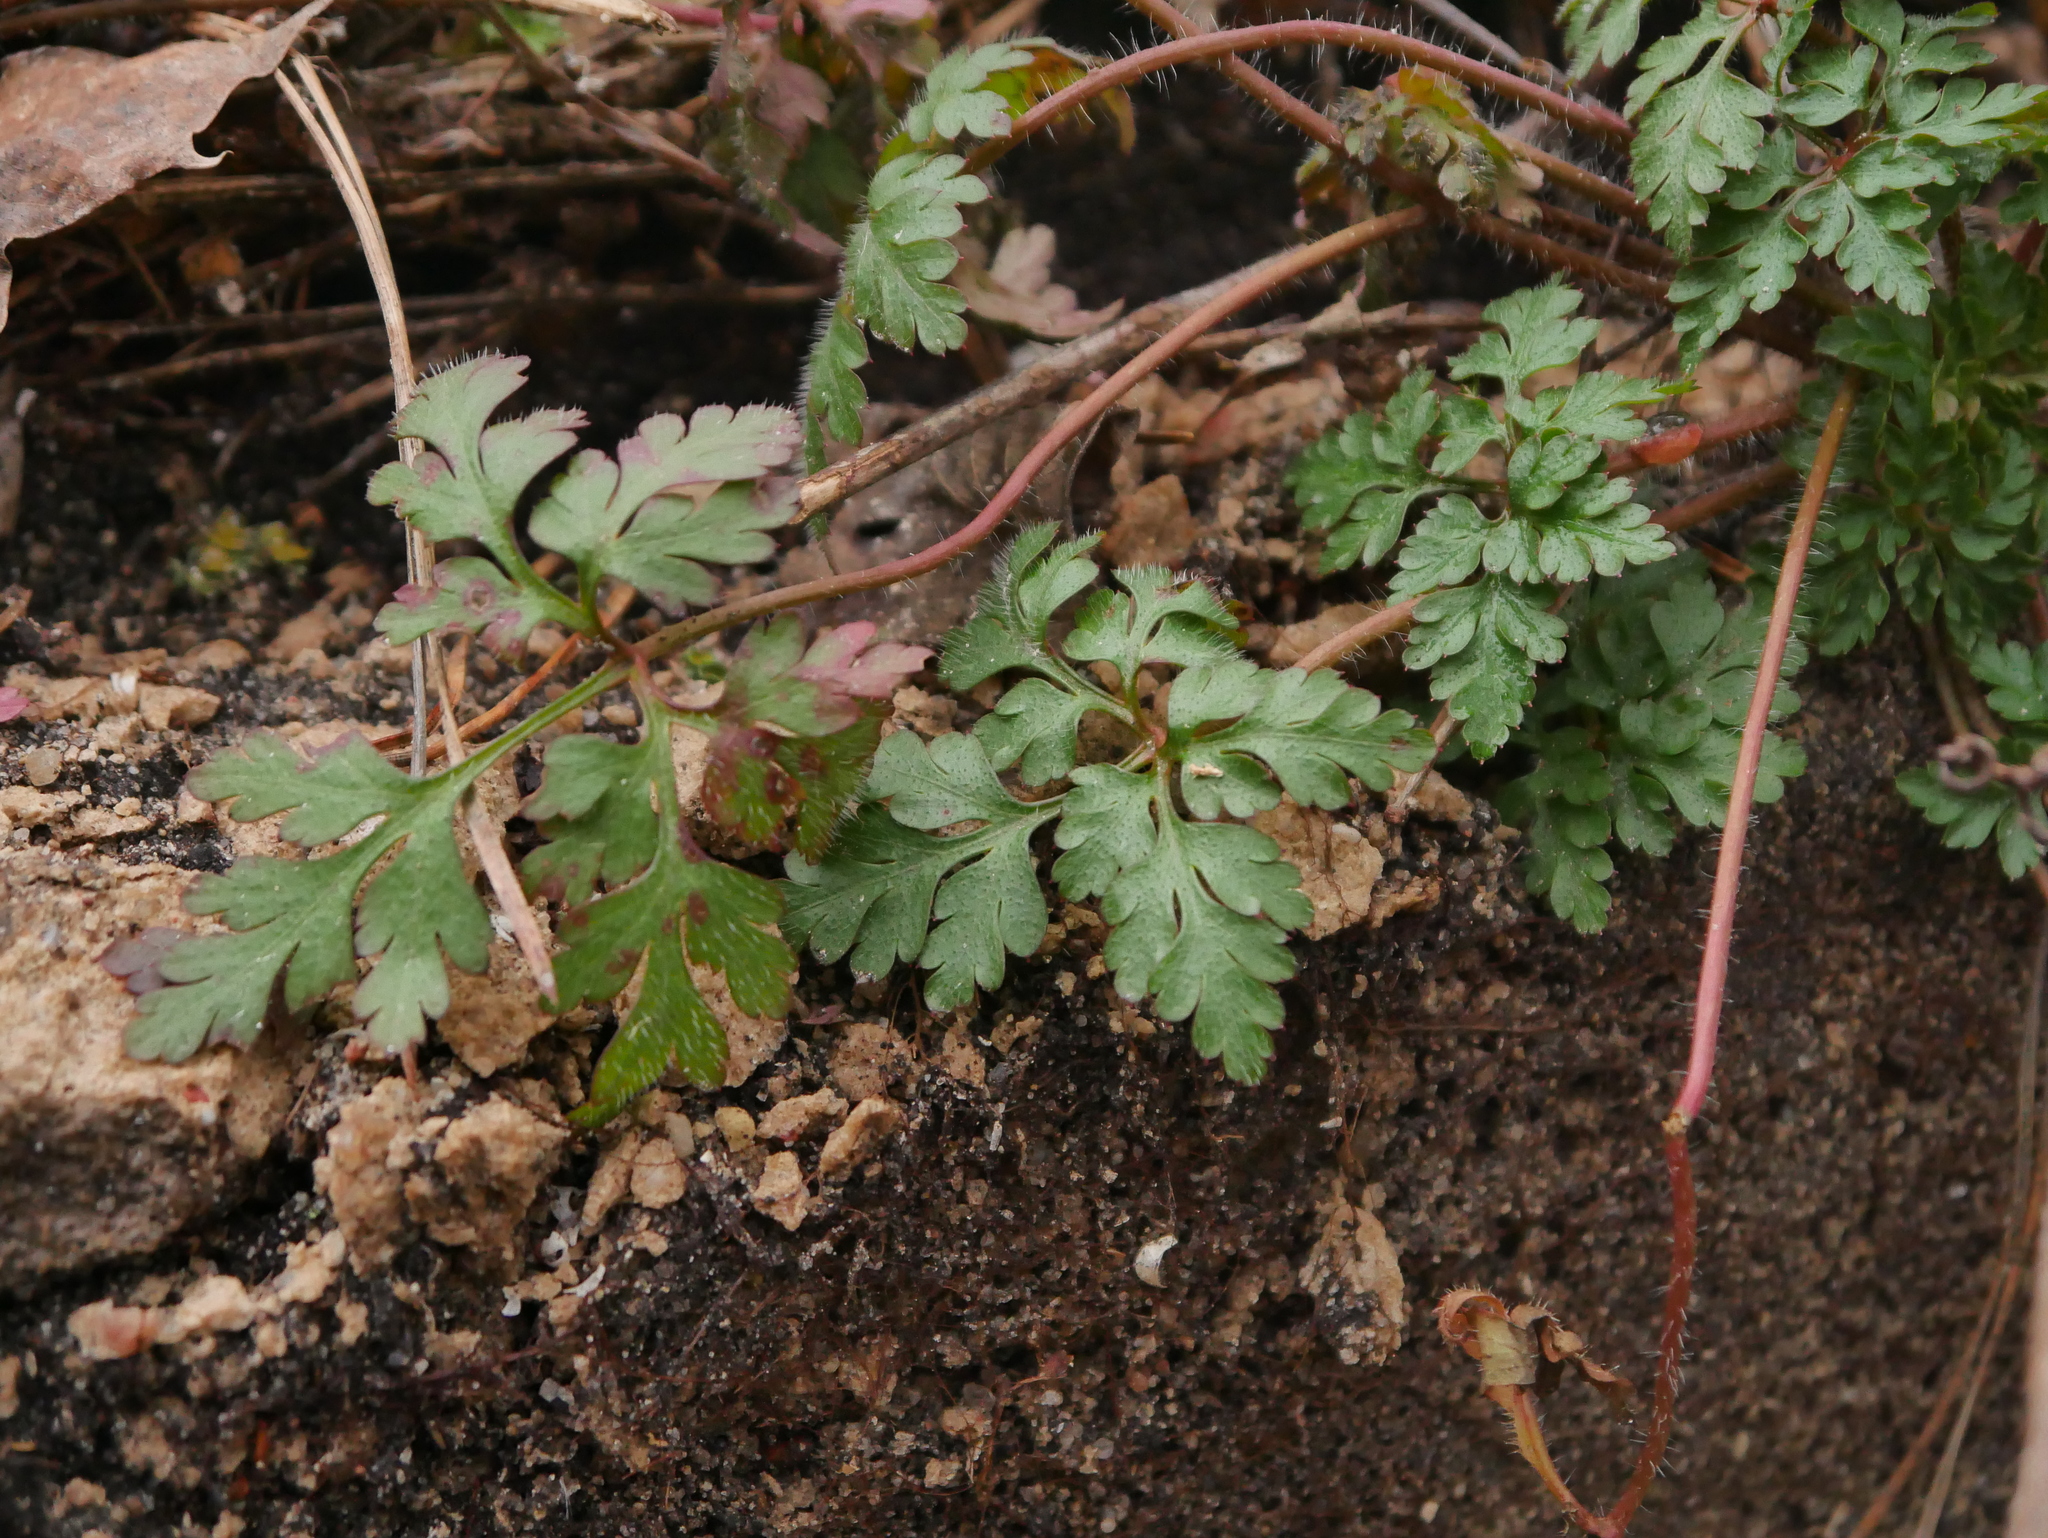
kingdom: Plantae
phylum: Tracheophyta
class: Magnoliopsida
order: Geraniales
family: Geraniaceae
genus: Geranium
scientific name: Geranium robertianum
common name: Herb-robert
